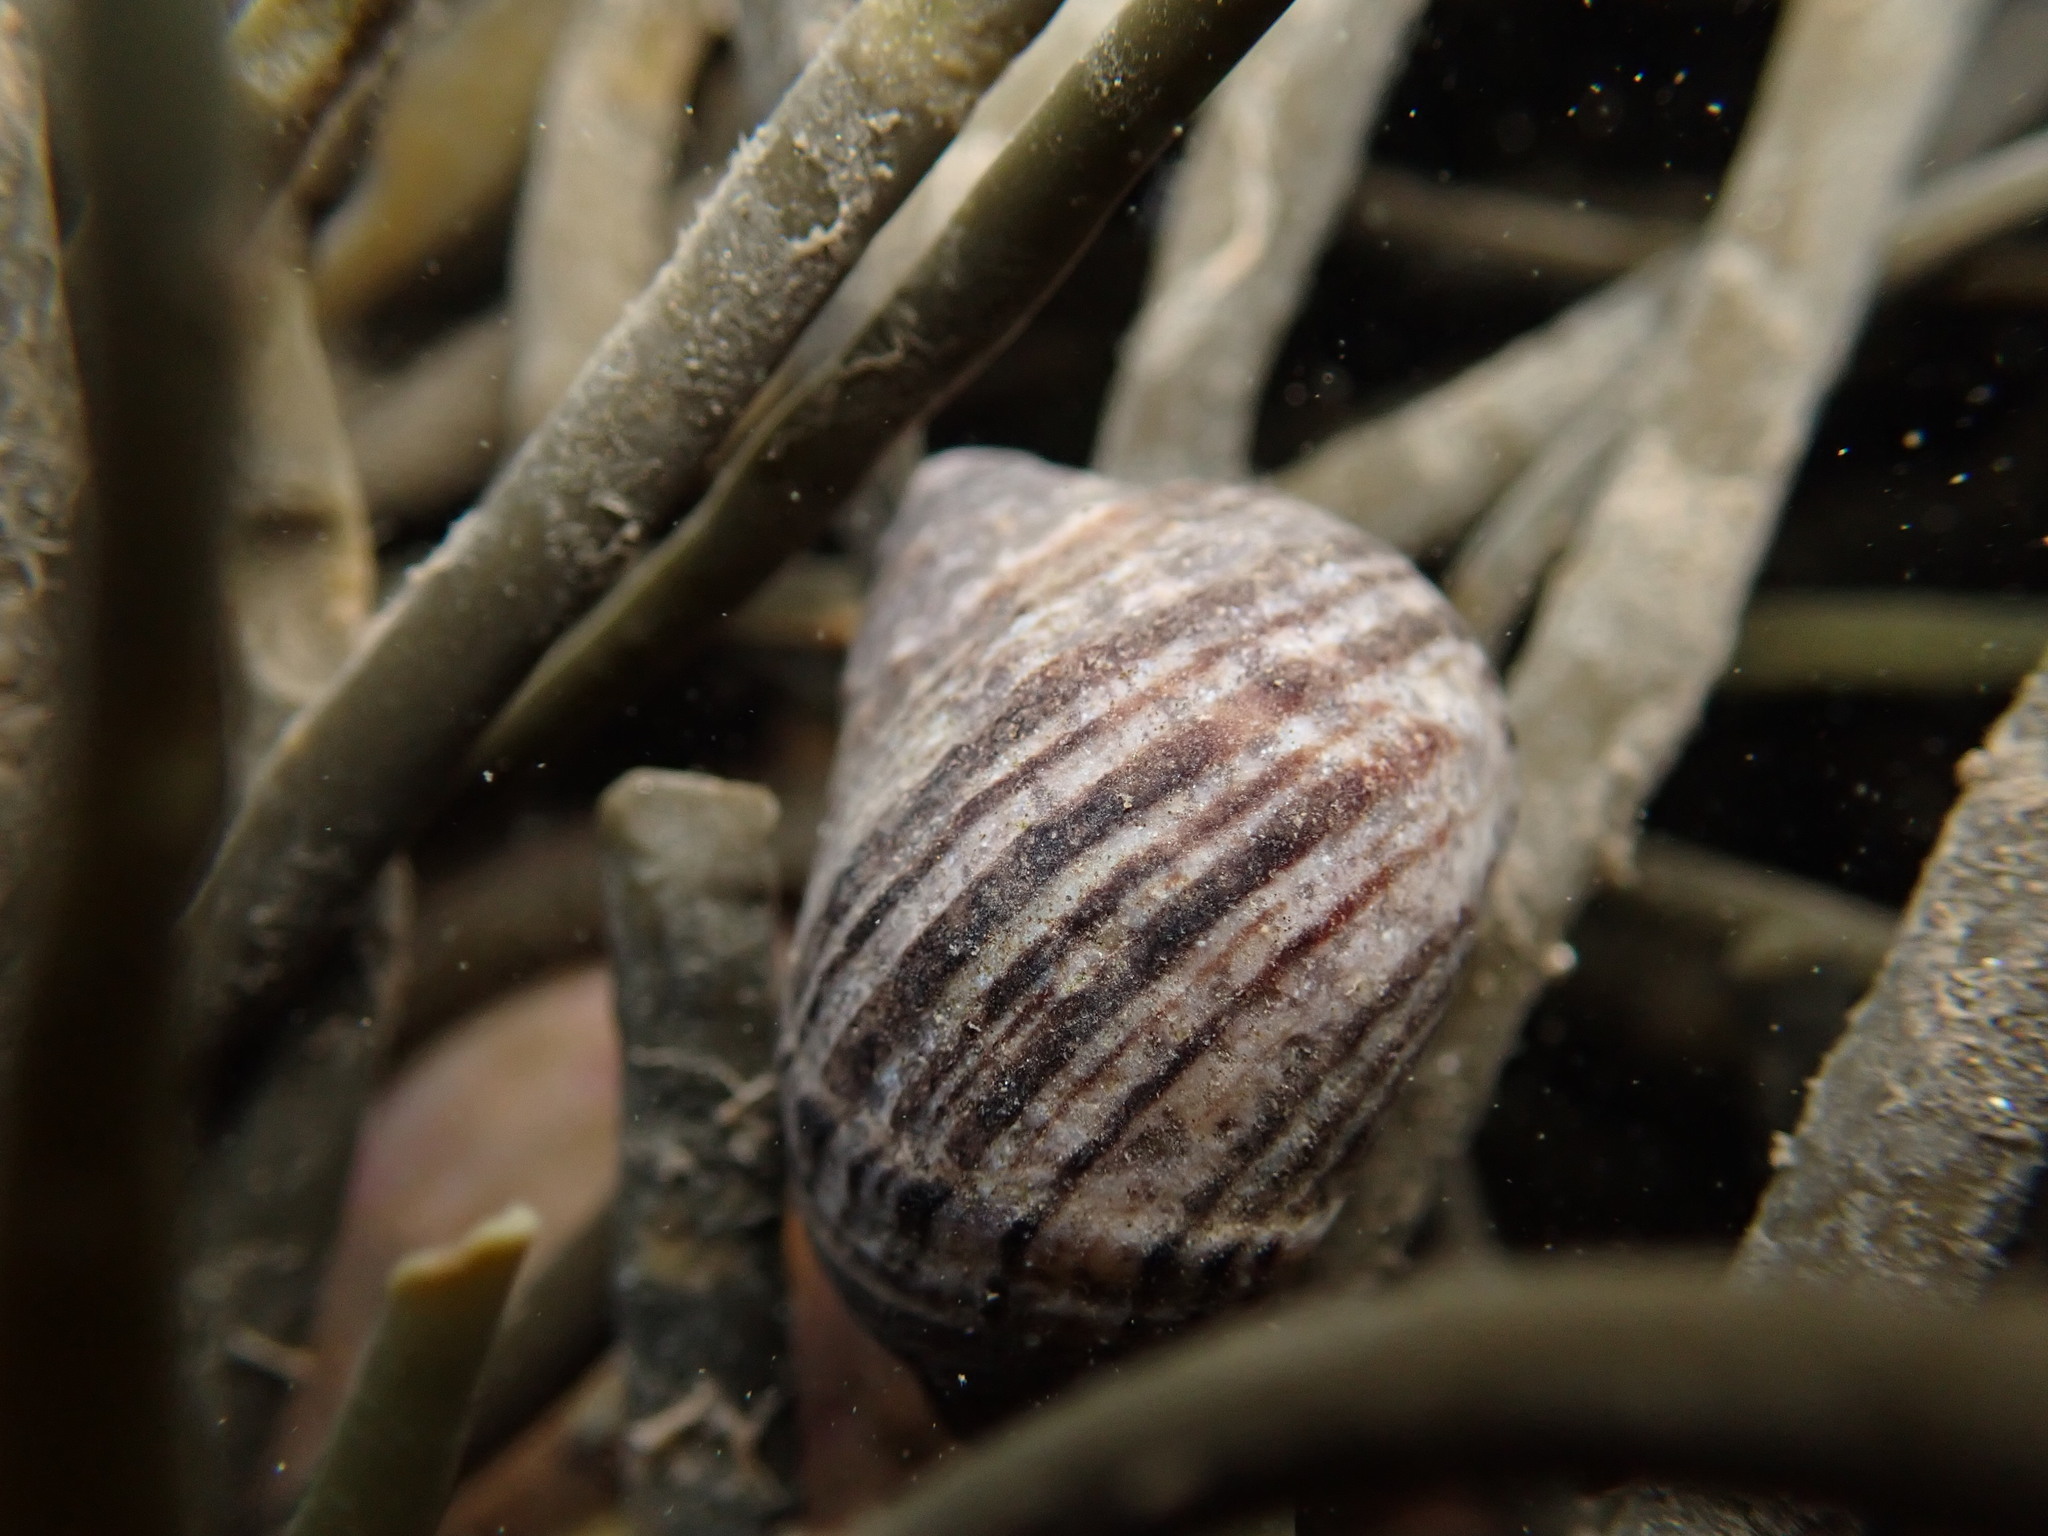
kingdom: Animalia
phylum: Mollusca
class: Gastropoda
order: Littorinimorpha
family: Littorinidae
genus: Littorina
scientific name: Littorina littorea
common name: Common periwinkle
